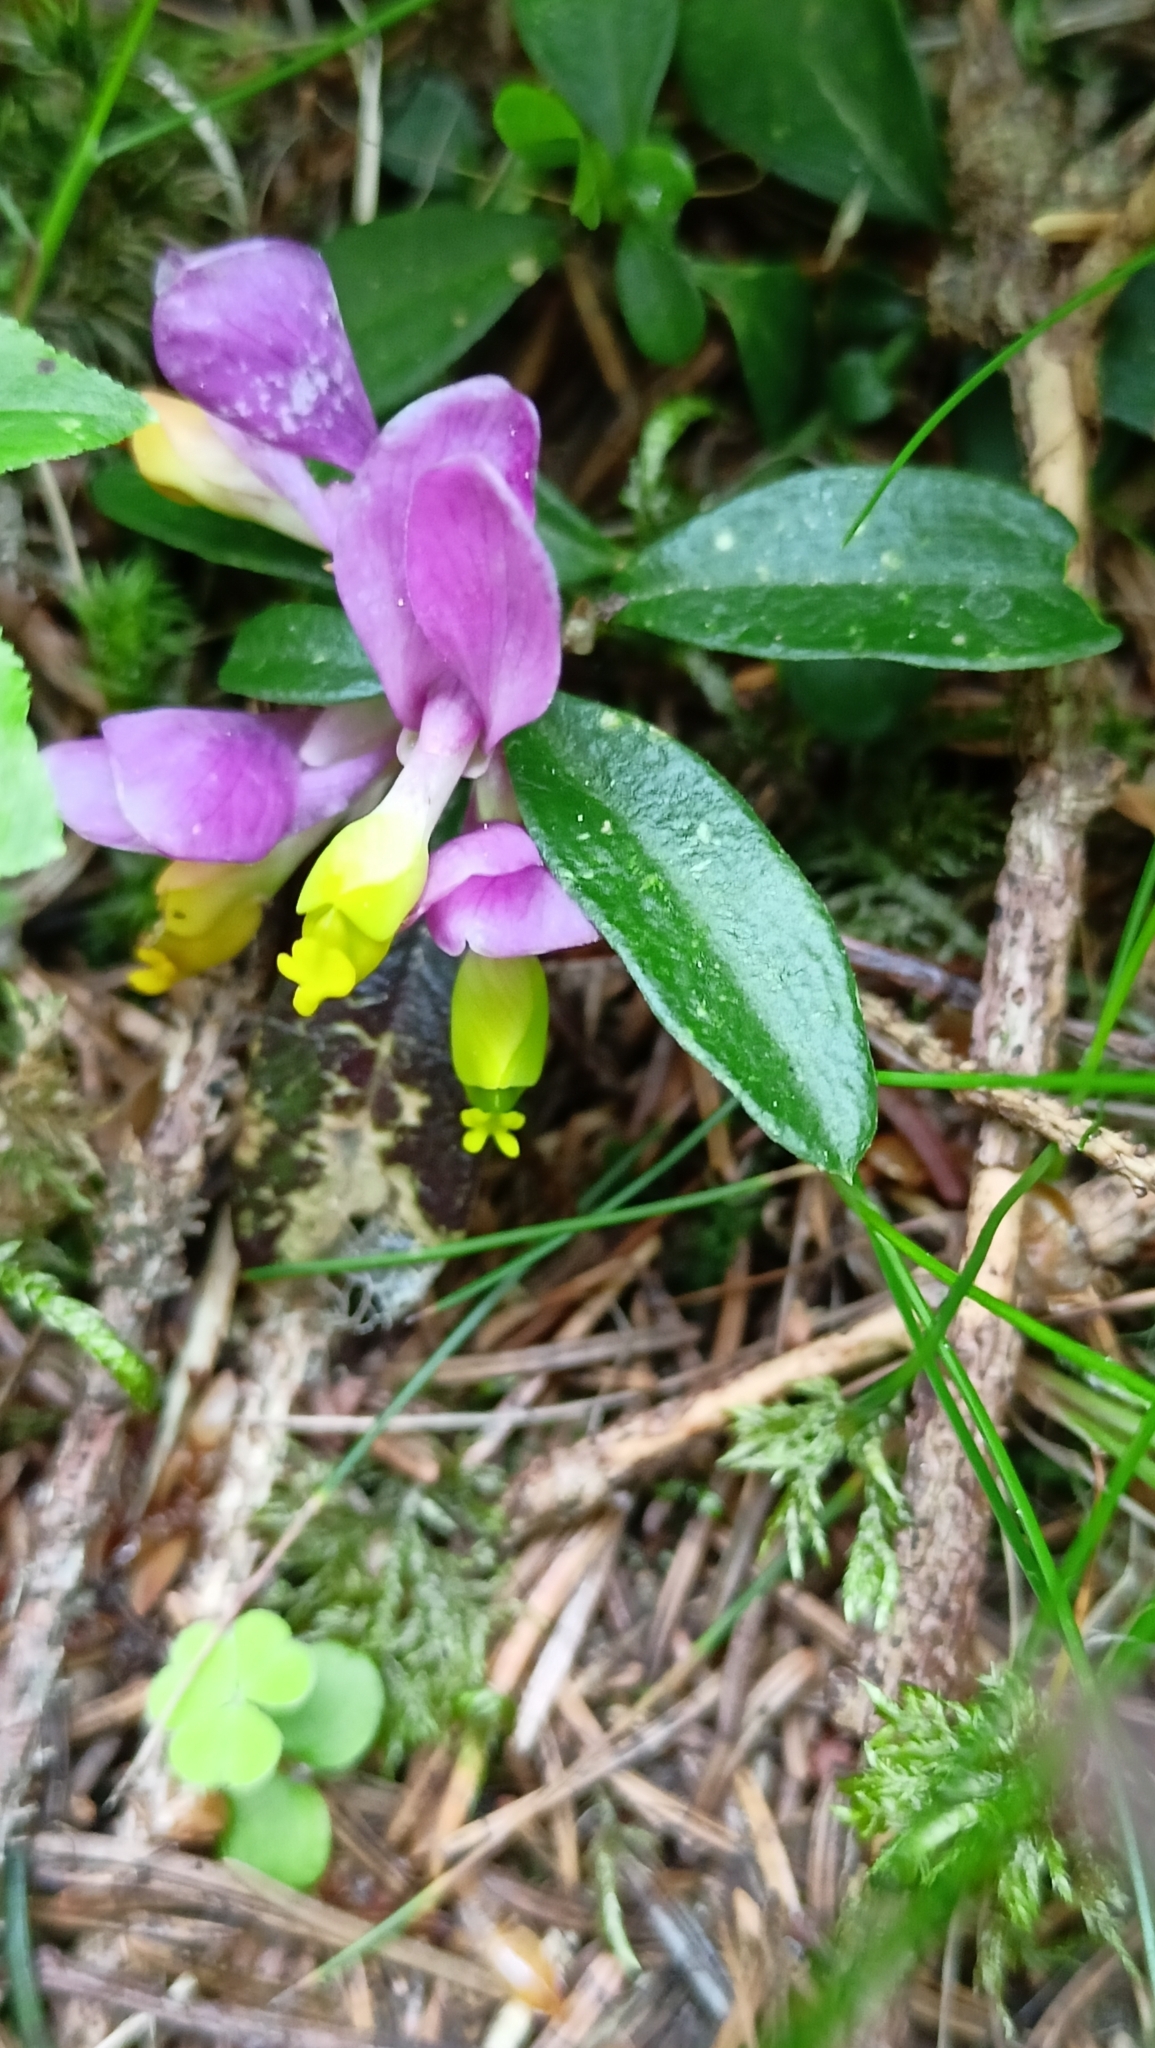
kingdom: Plantae
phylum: Tracheophyta
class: Magnoliopsida
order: Fabales
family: Polygalaceae
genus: Polygaloides
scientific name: Polygaloides chamaebuxus
